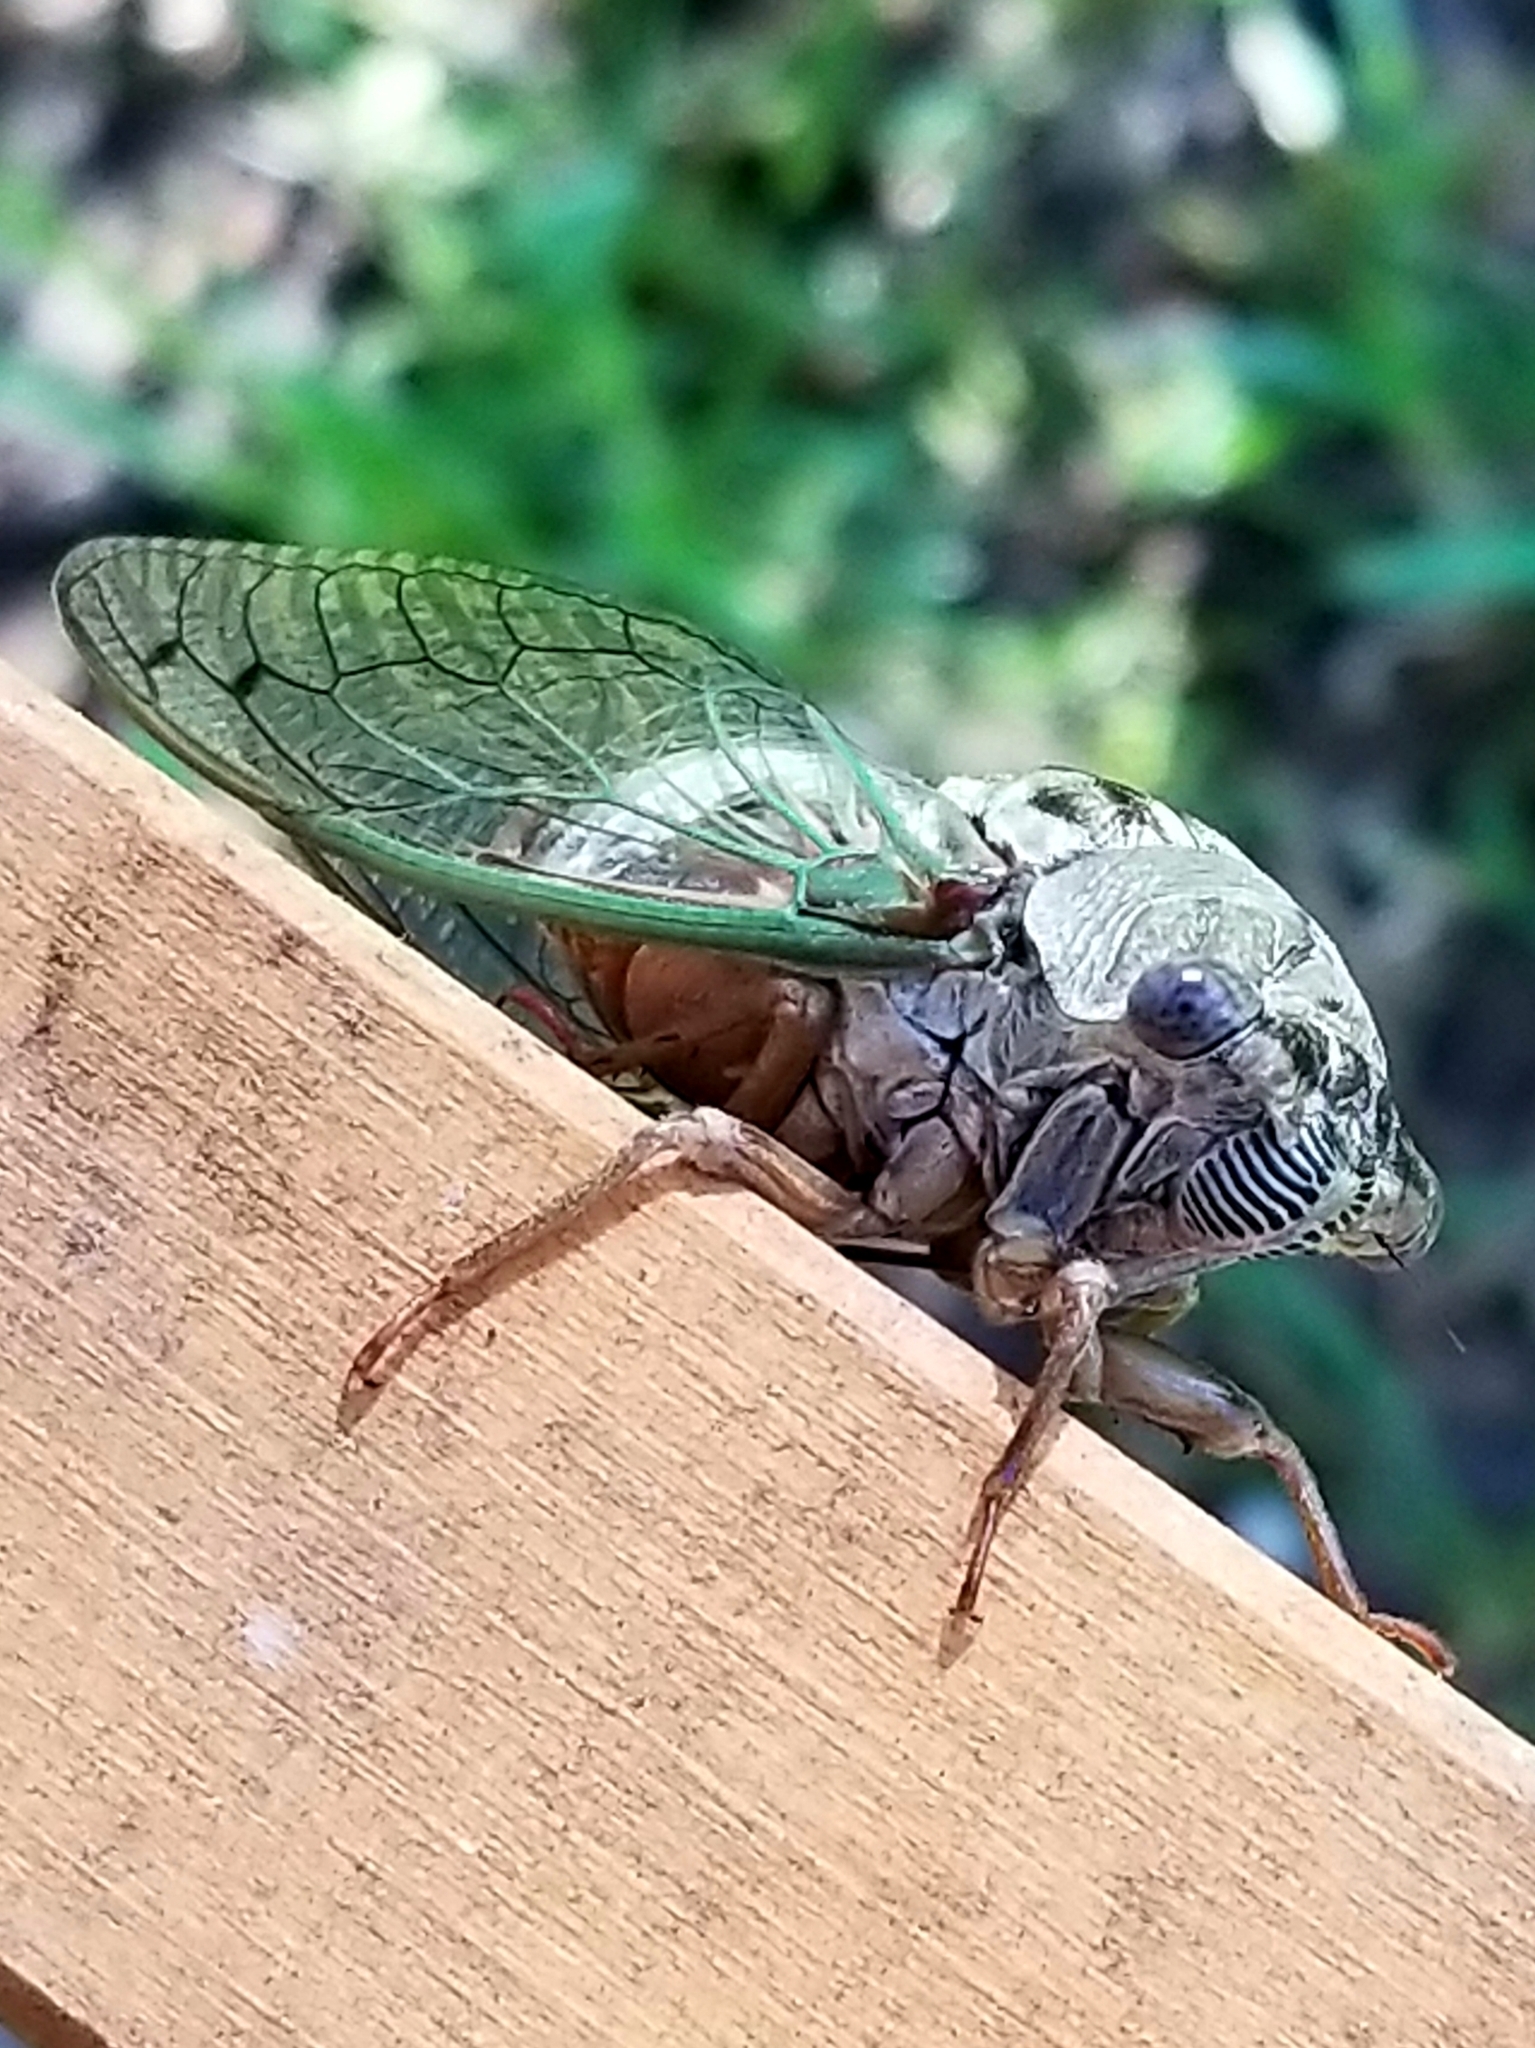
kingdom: Animalia
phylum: Arthropoda
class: Insecta
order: Hemiptera
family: Cicadidae
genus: Megatibicen
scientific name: Megatibicen resh
